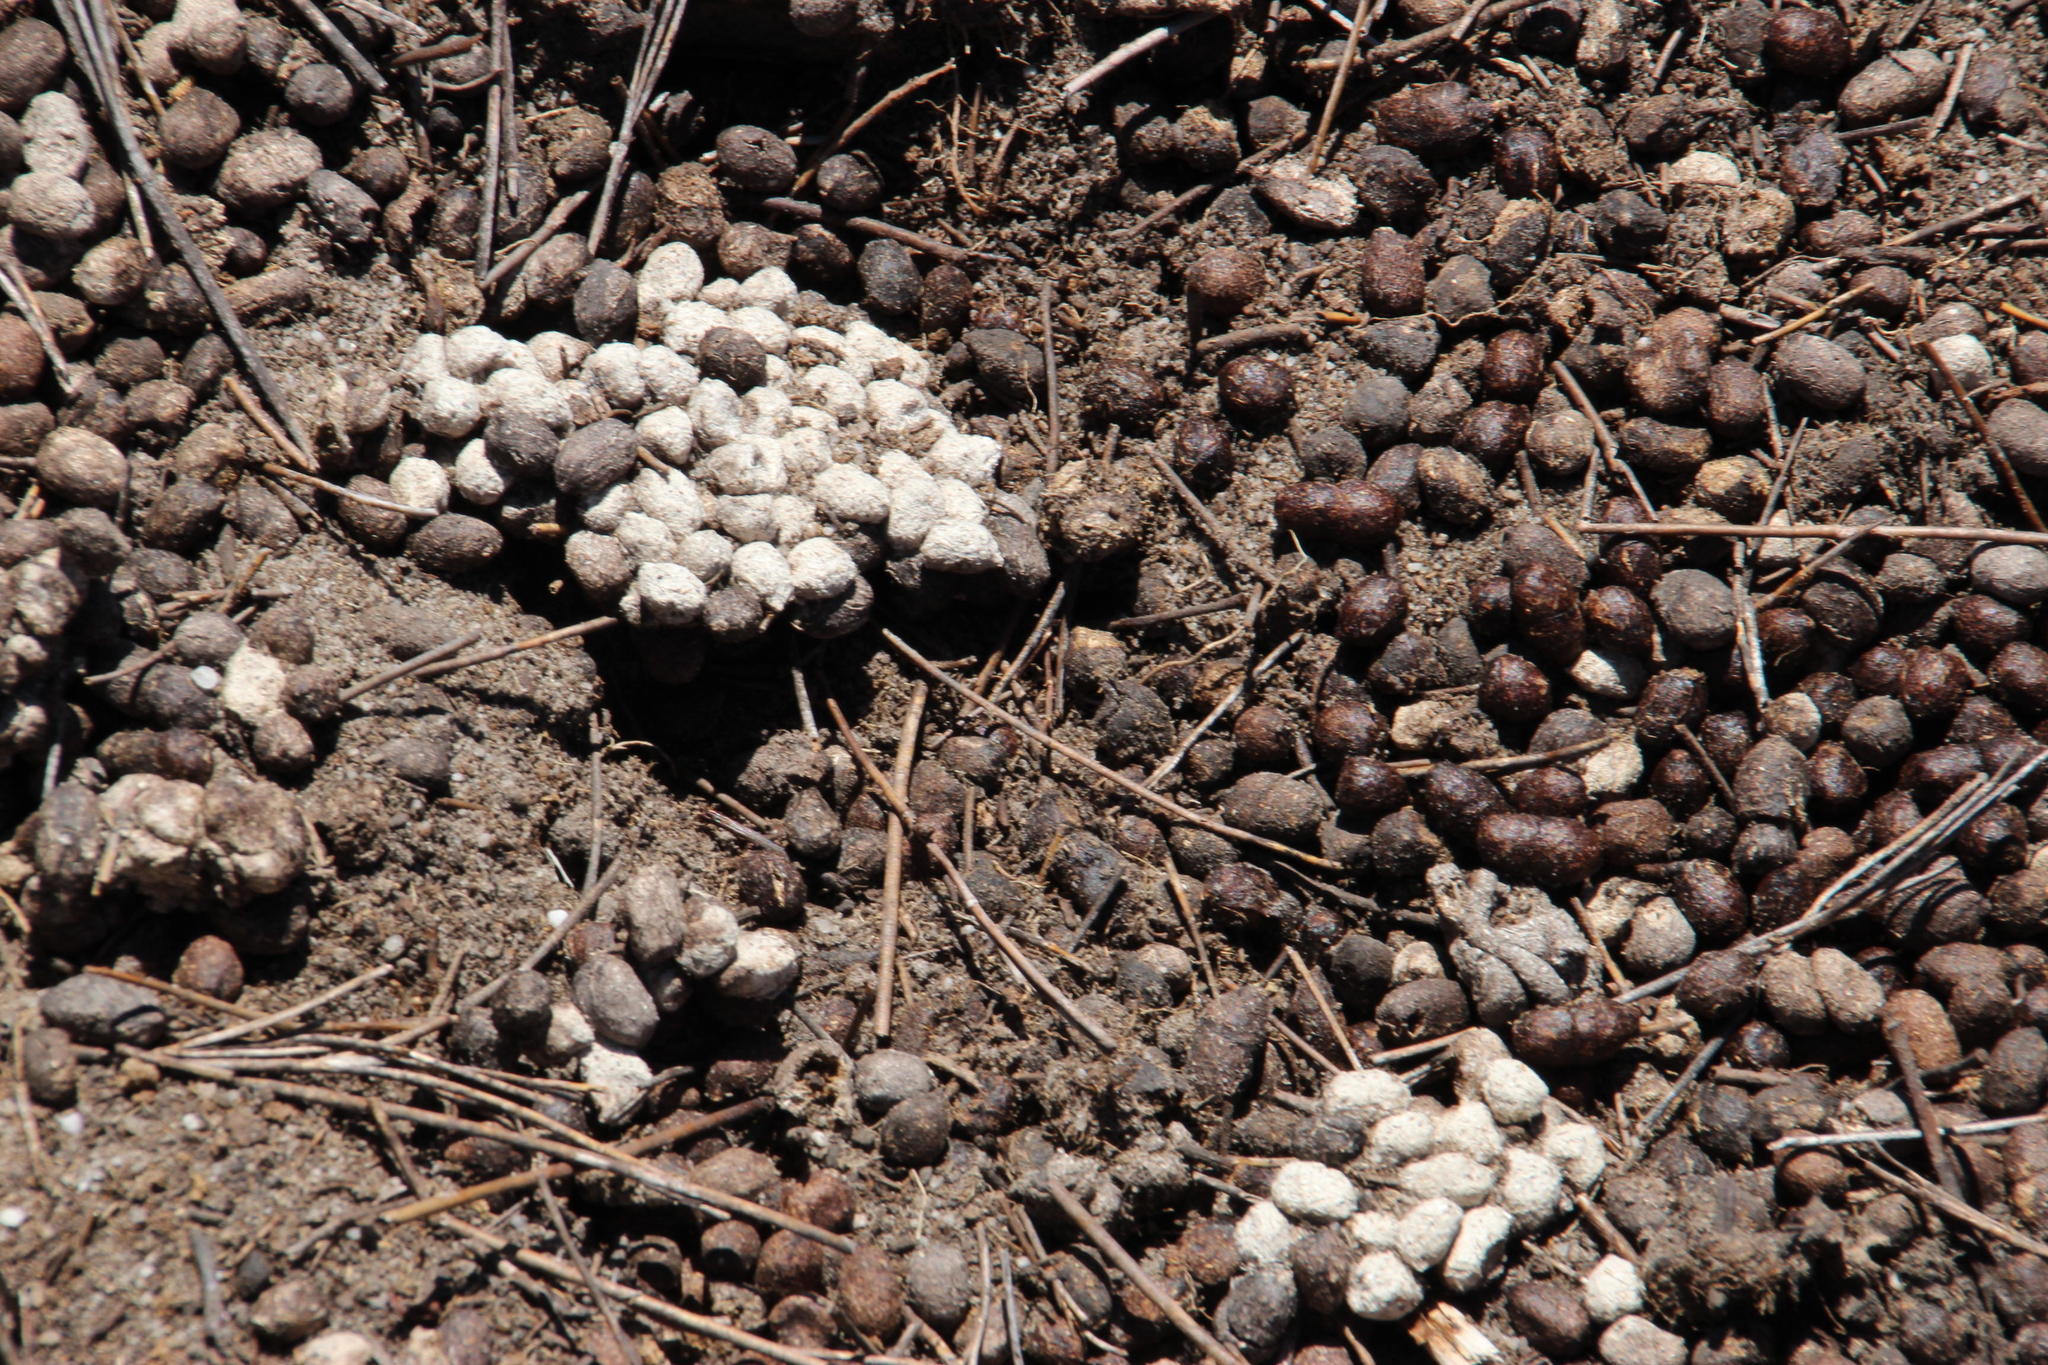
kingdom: Animalia
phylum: Chordata
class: Mammalia
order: Lagomorpha
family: Leporidae
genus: Pronolagus
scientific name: Pronolagus saundersiae
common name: Hewitt's red rock hare
